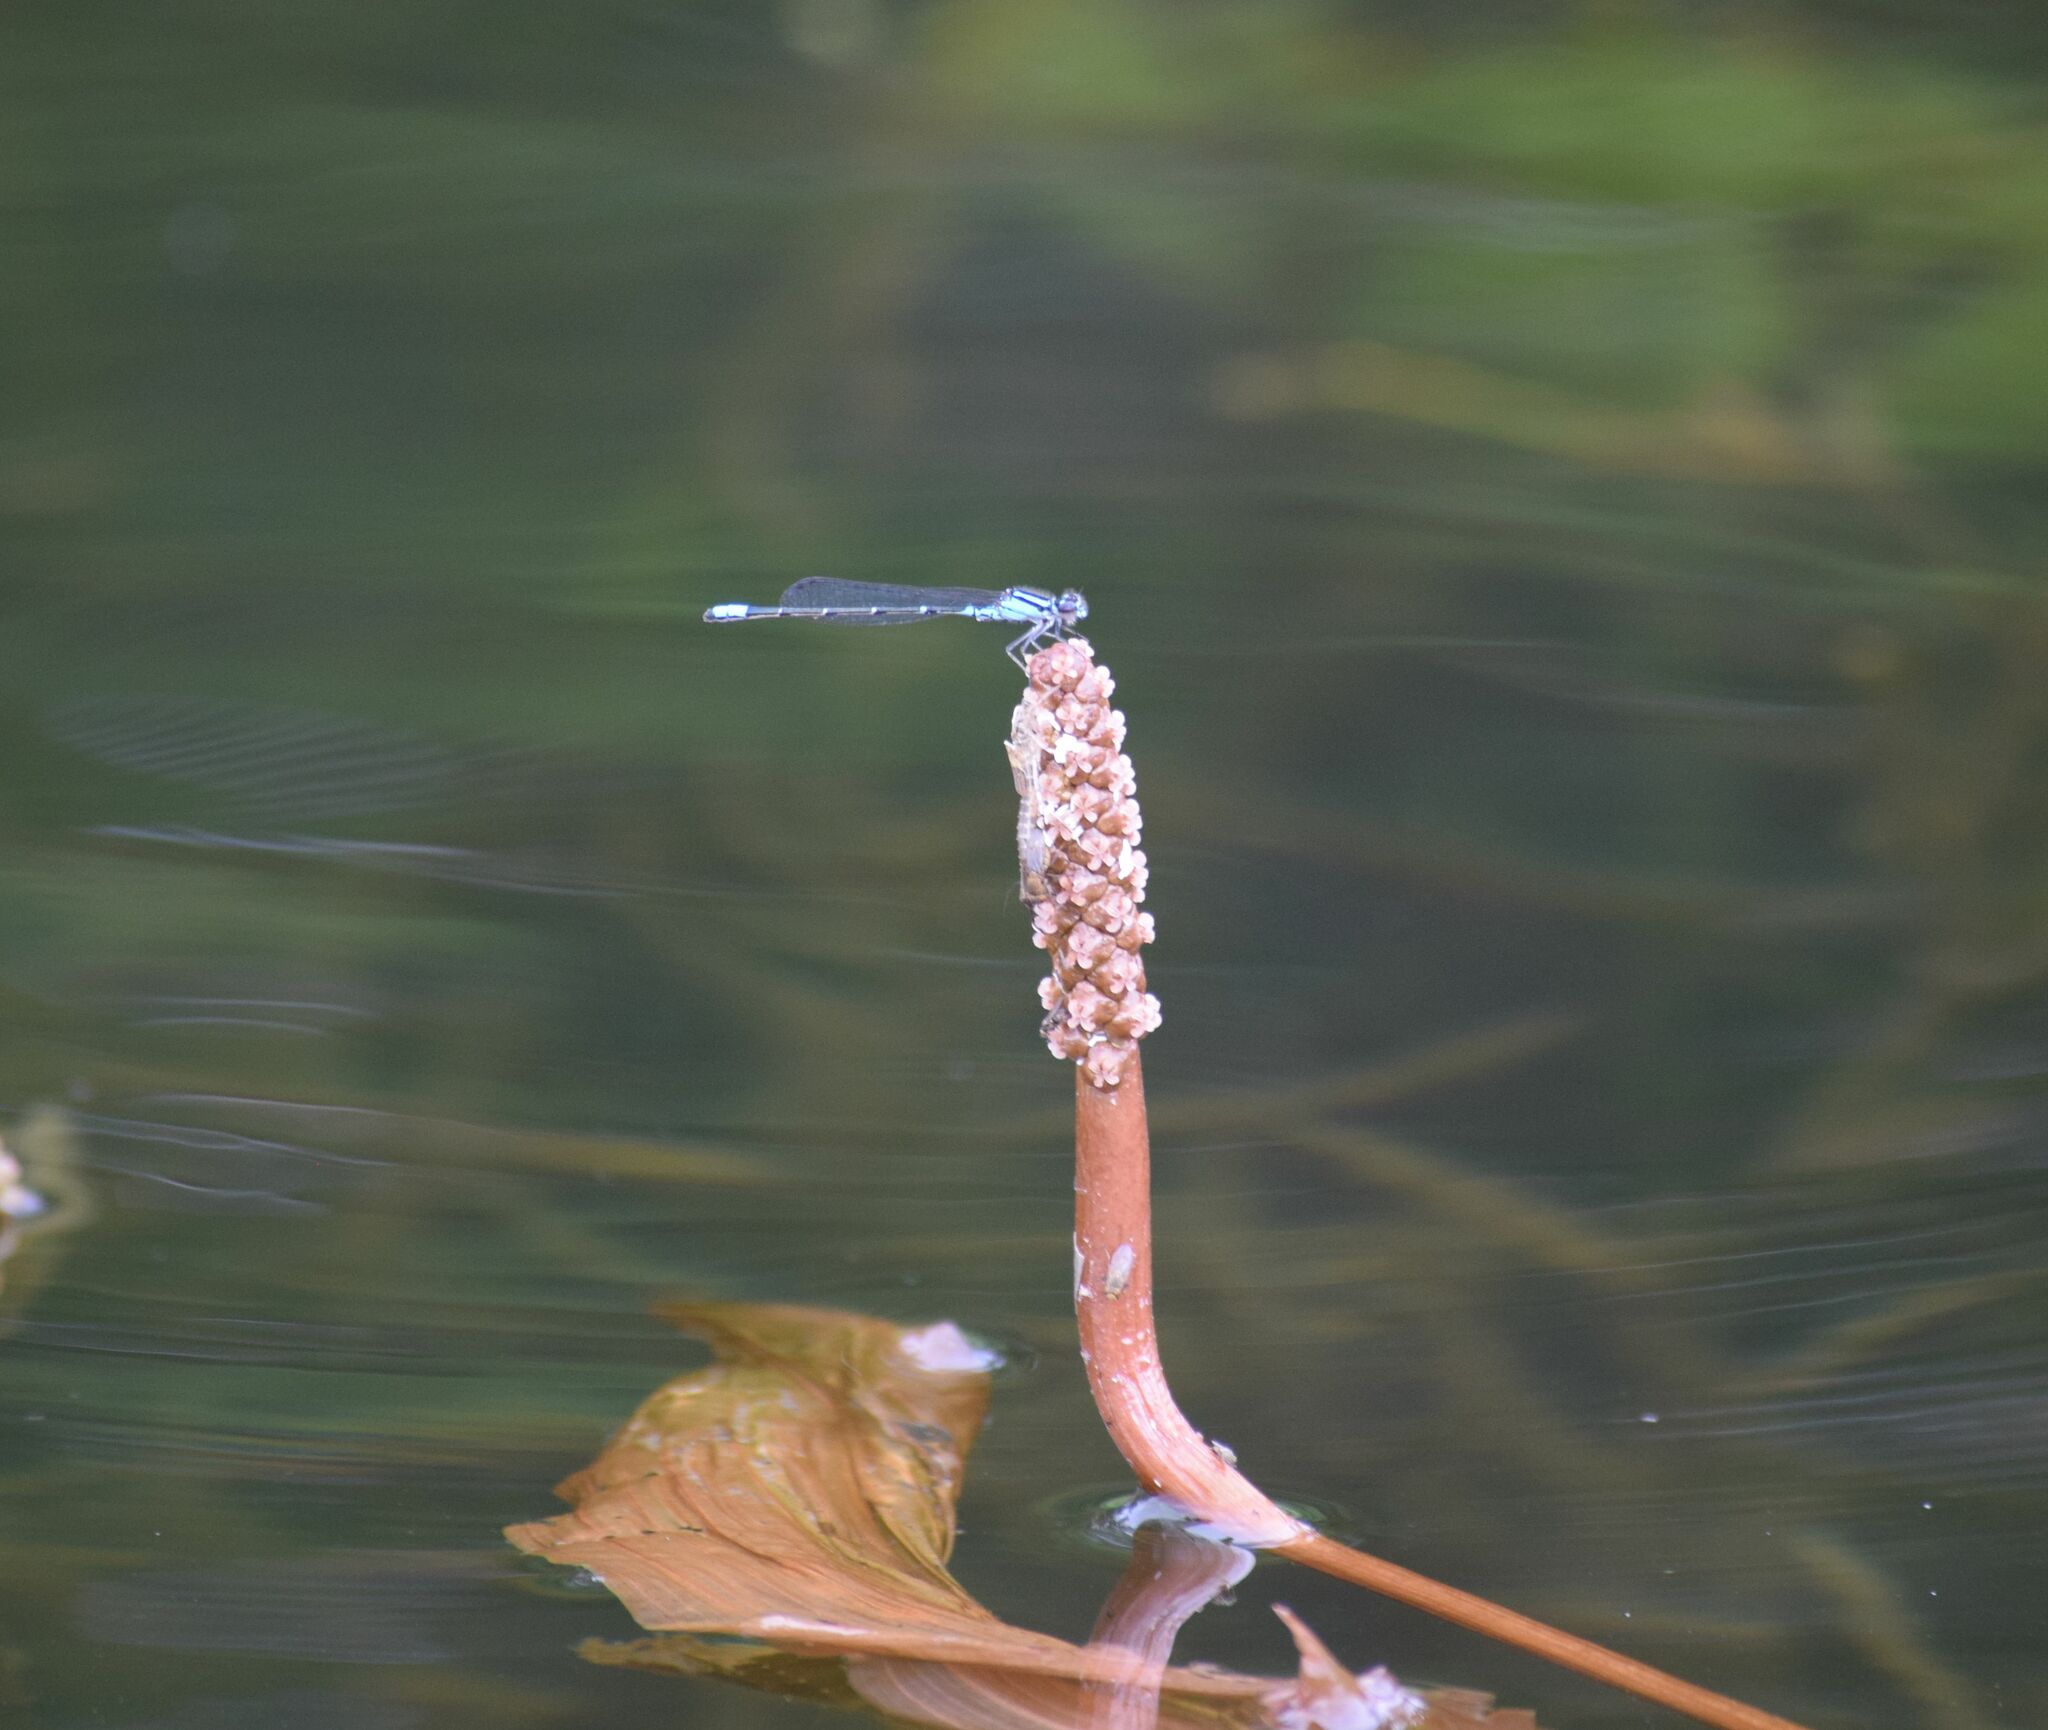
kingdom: Animalia
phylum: Arthropoda
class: Insecta
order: Odonata
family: Coenagrionidae
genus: Enallagma
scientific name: Enallagma geminatum
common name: Skimming bluet
